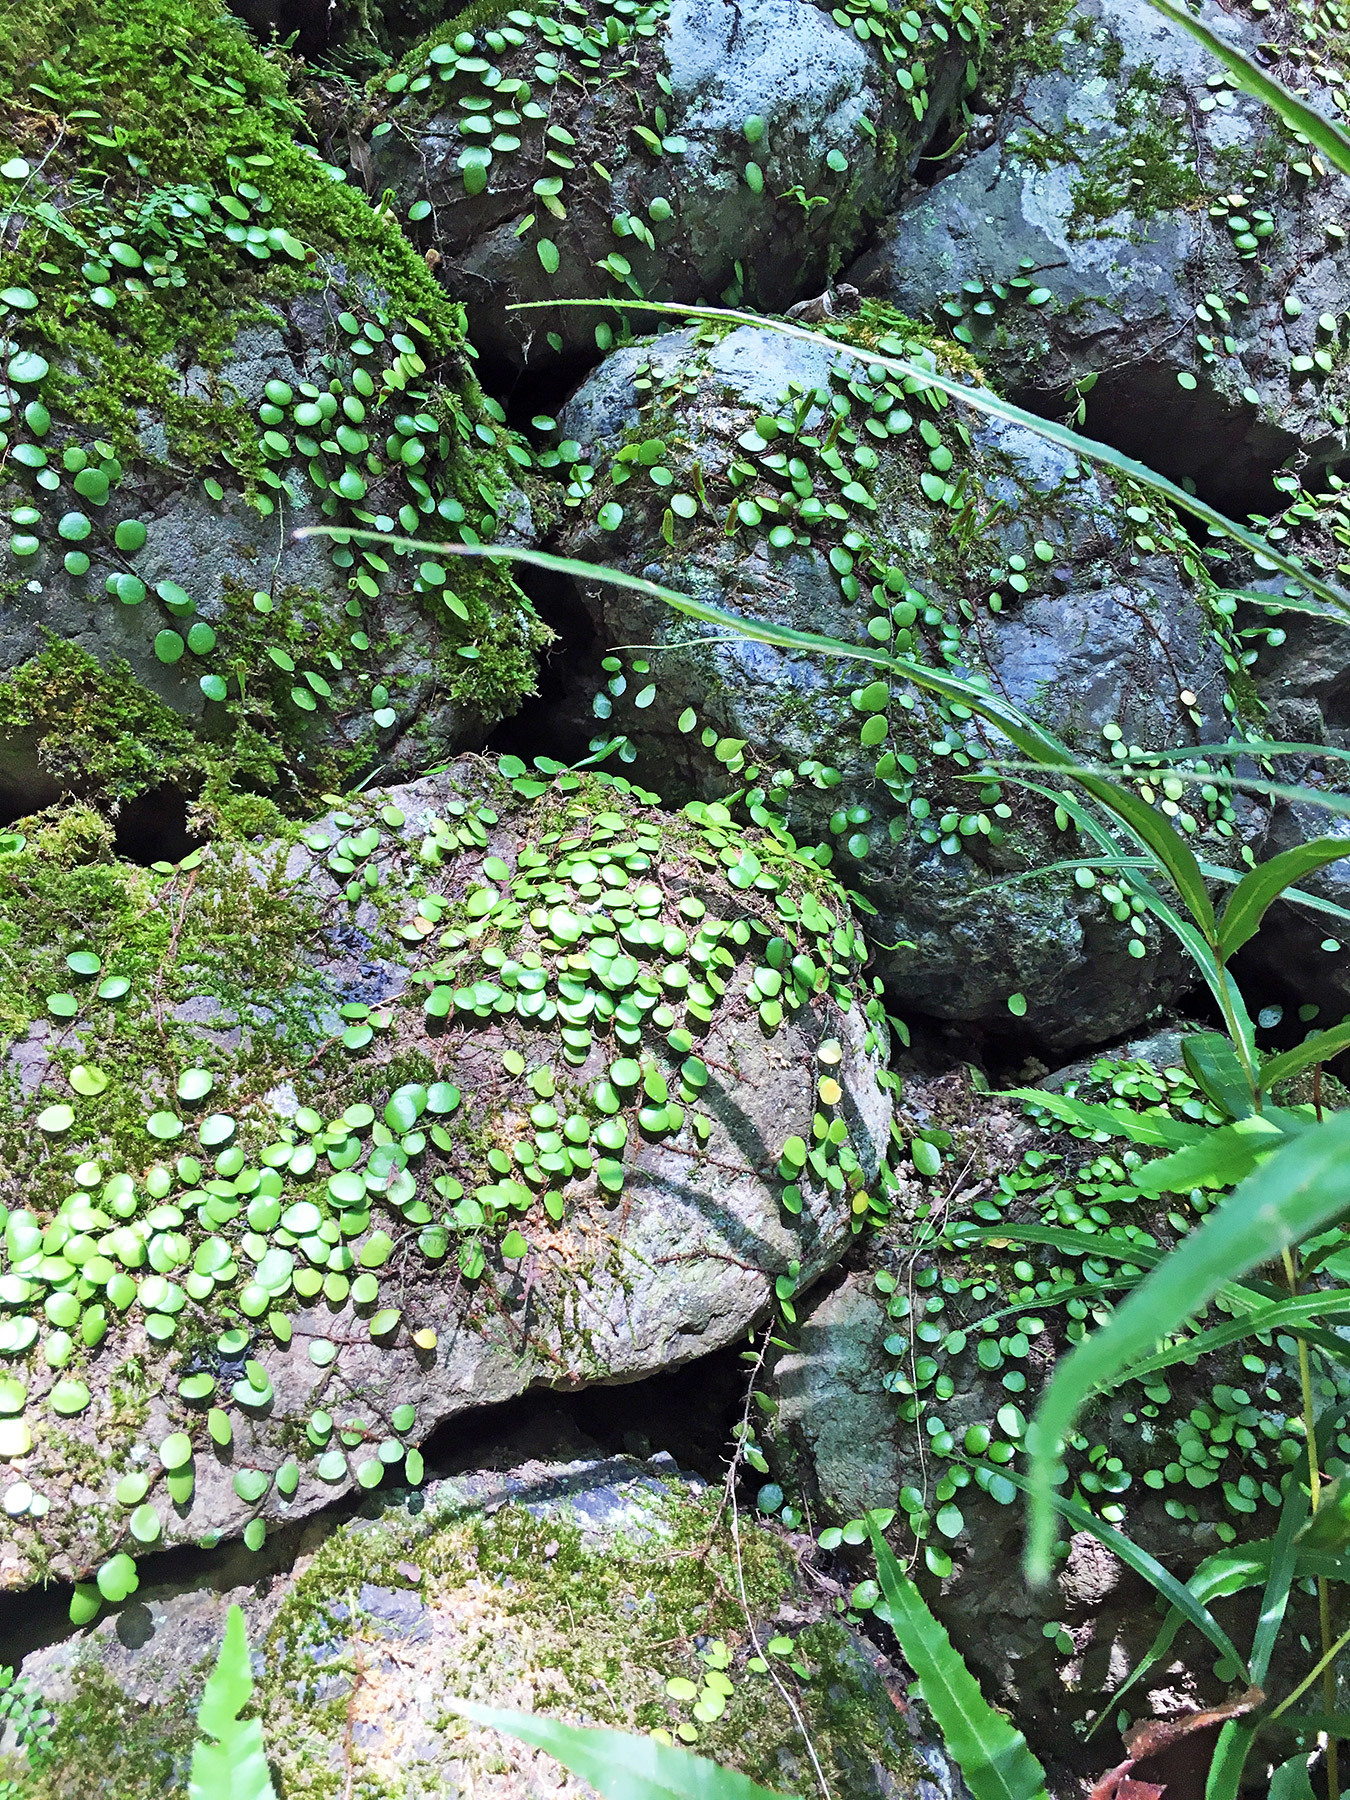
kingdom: Plantae
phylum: Tracheophyta
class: Polypodiopsida
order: Polypodiales
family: Polypodiaceae
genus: Lepisorus
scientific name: Lepisorus microphyllus
